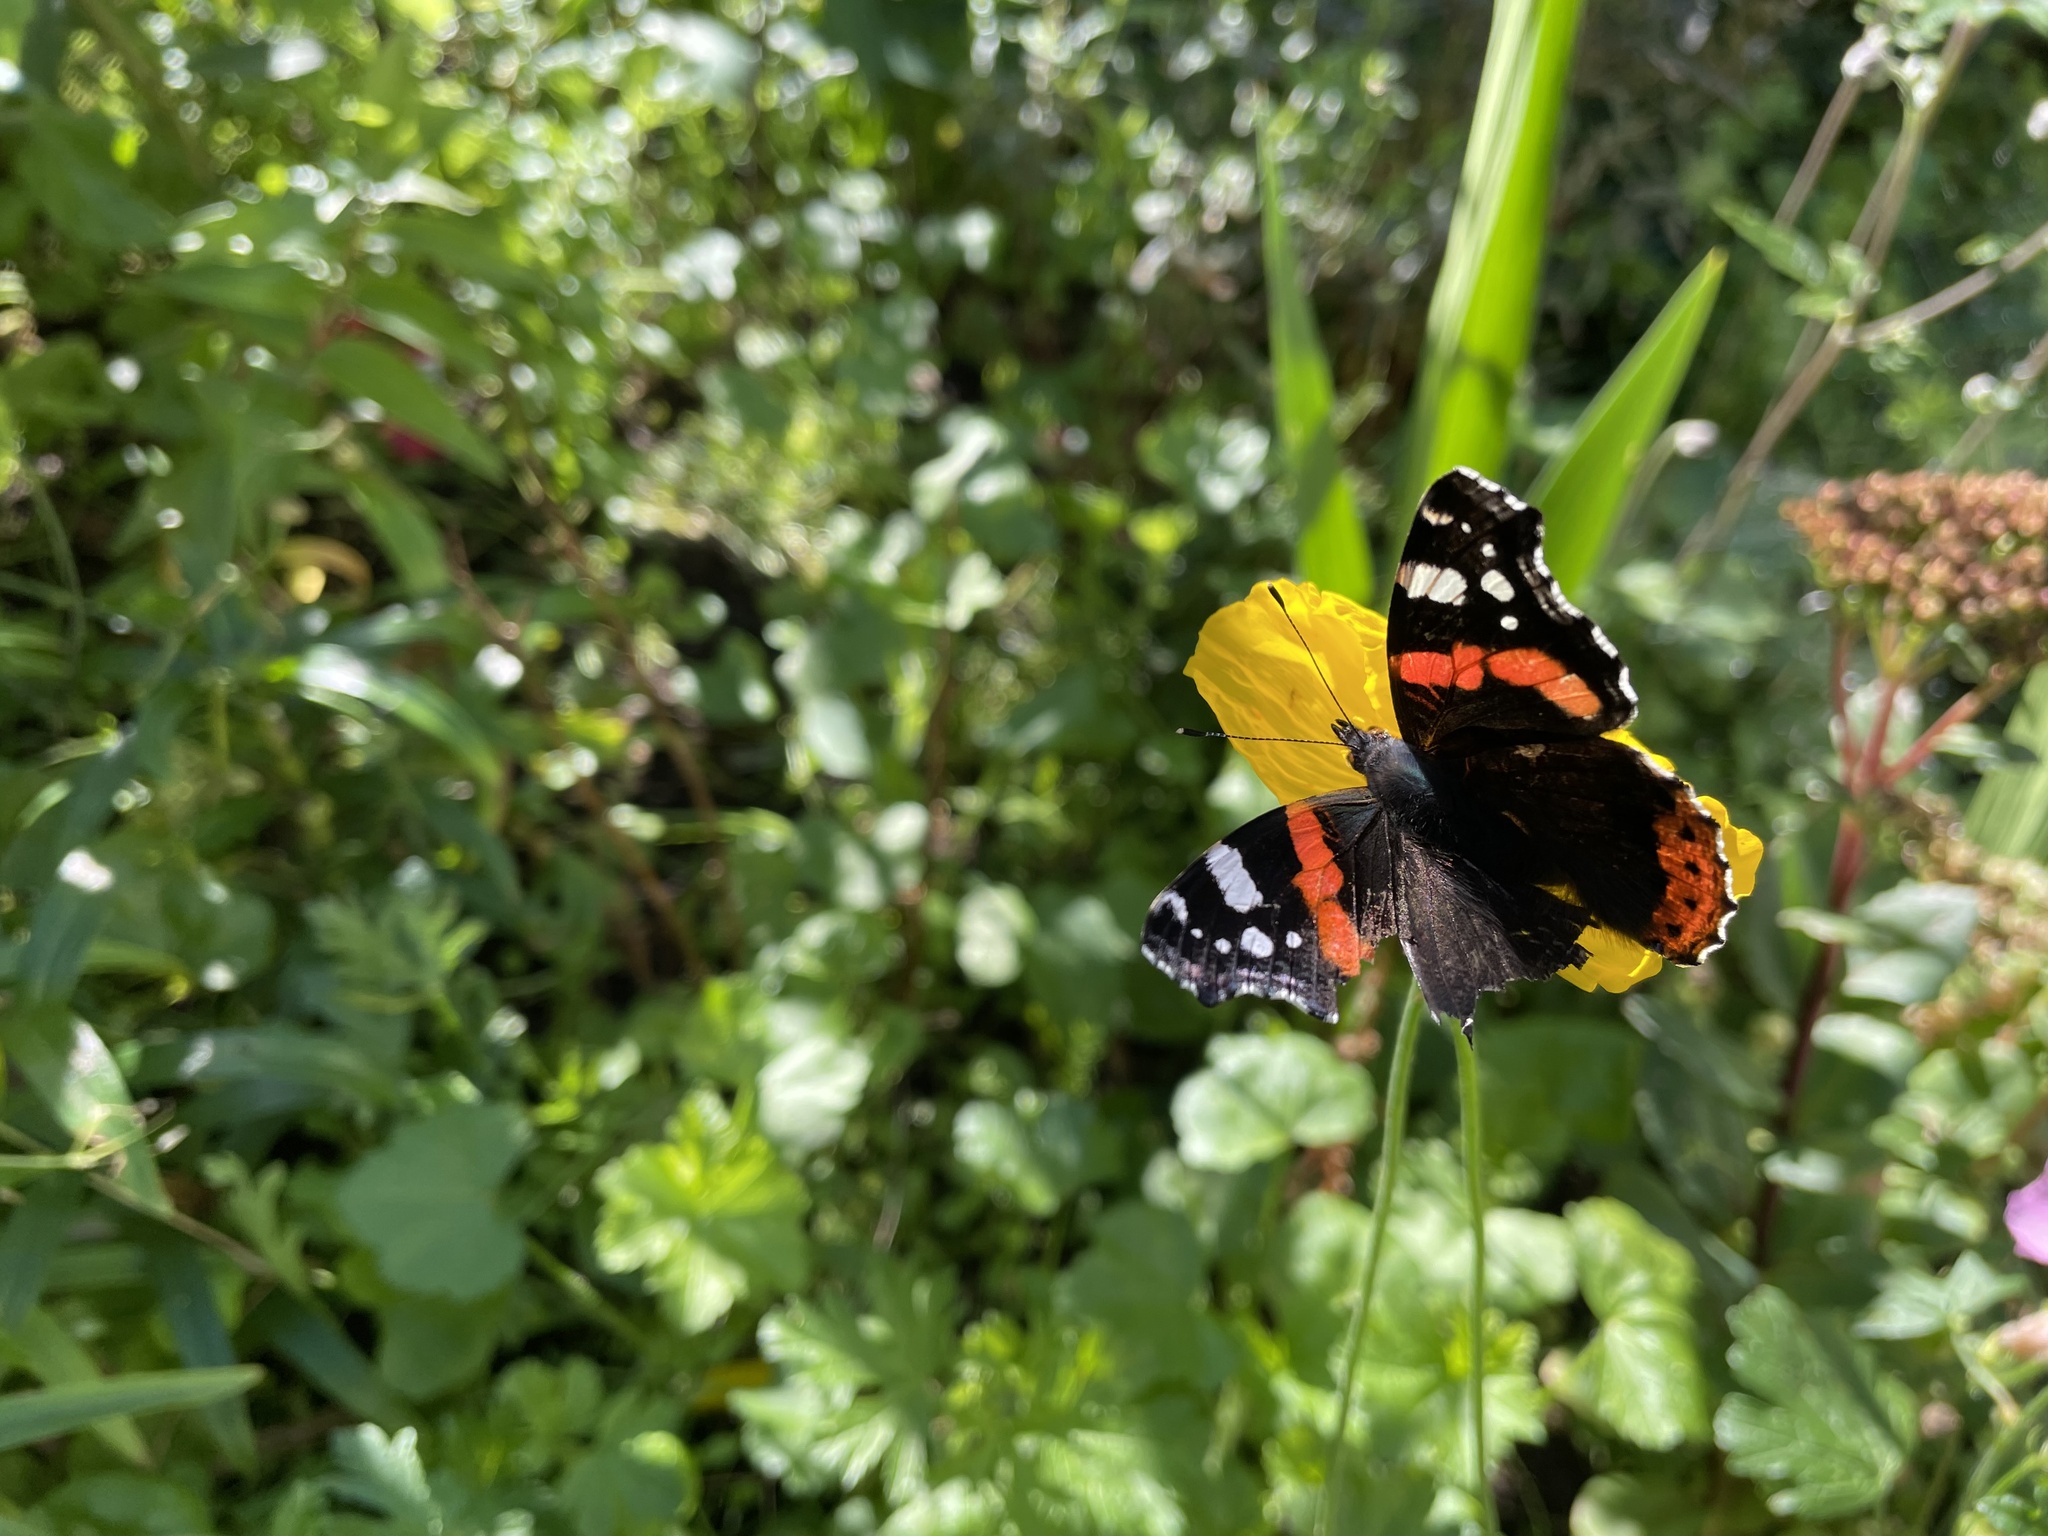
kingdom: Animalia
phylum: Arthropoda
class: Insecta
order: Lepidoptera
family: Nymphalidae
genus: Vanessa
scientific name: Vanessa atalanta
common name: Red admiral
